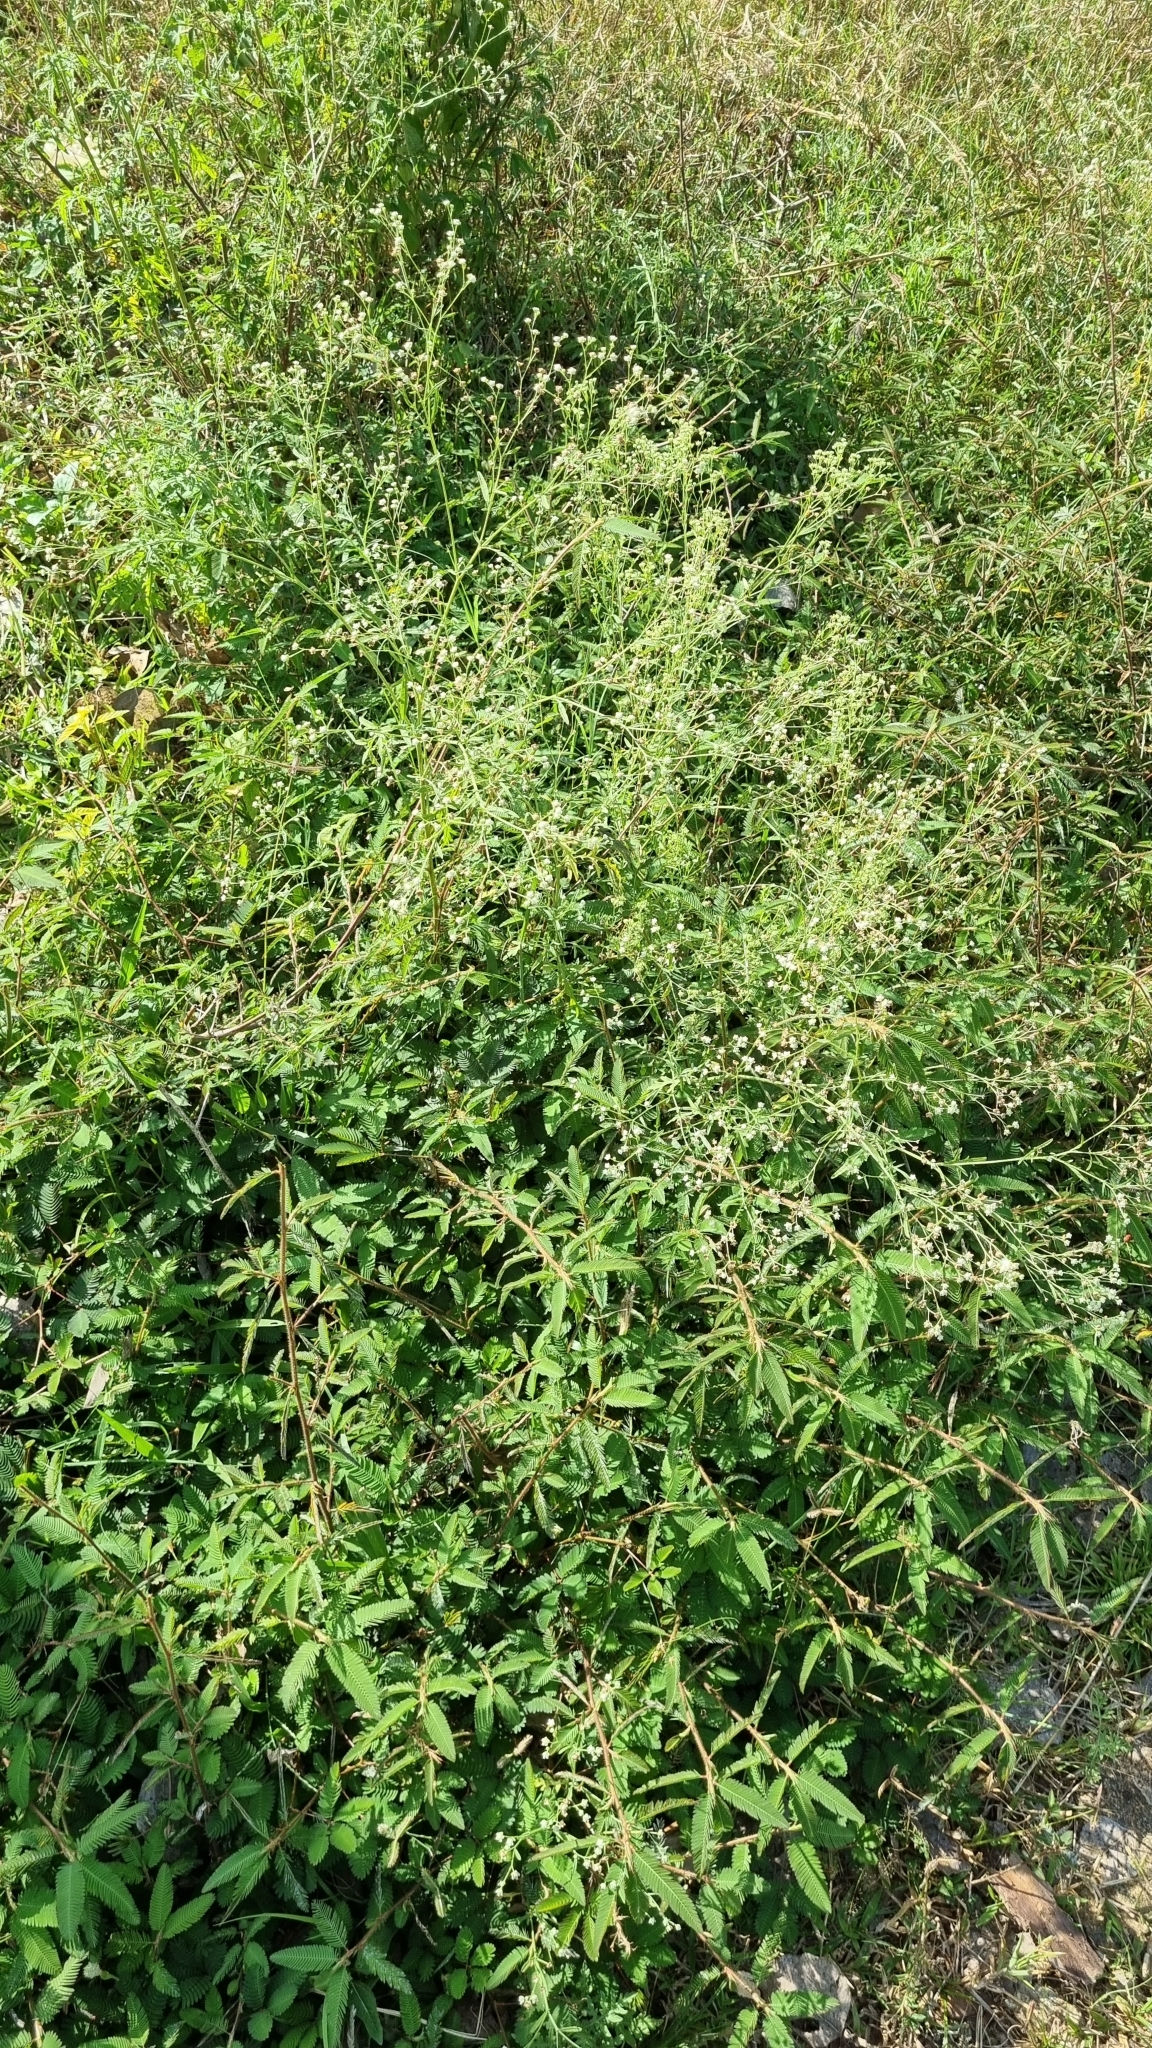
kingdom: Plantae
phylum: Tracheophyta
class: Magnoliopsida
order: Asterales
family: Asteraceae
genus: Parthenium
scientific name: Parthenium hysterophorus
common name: Santa maria feverfew
